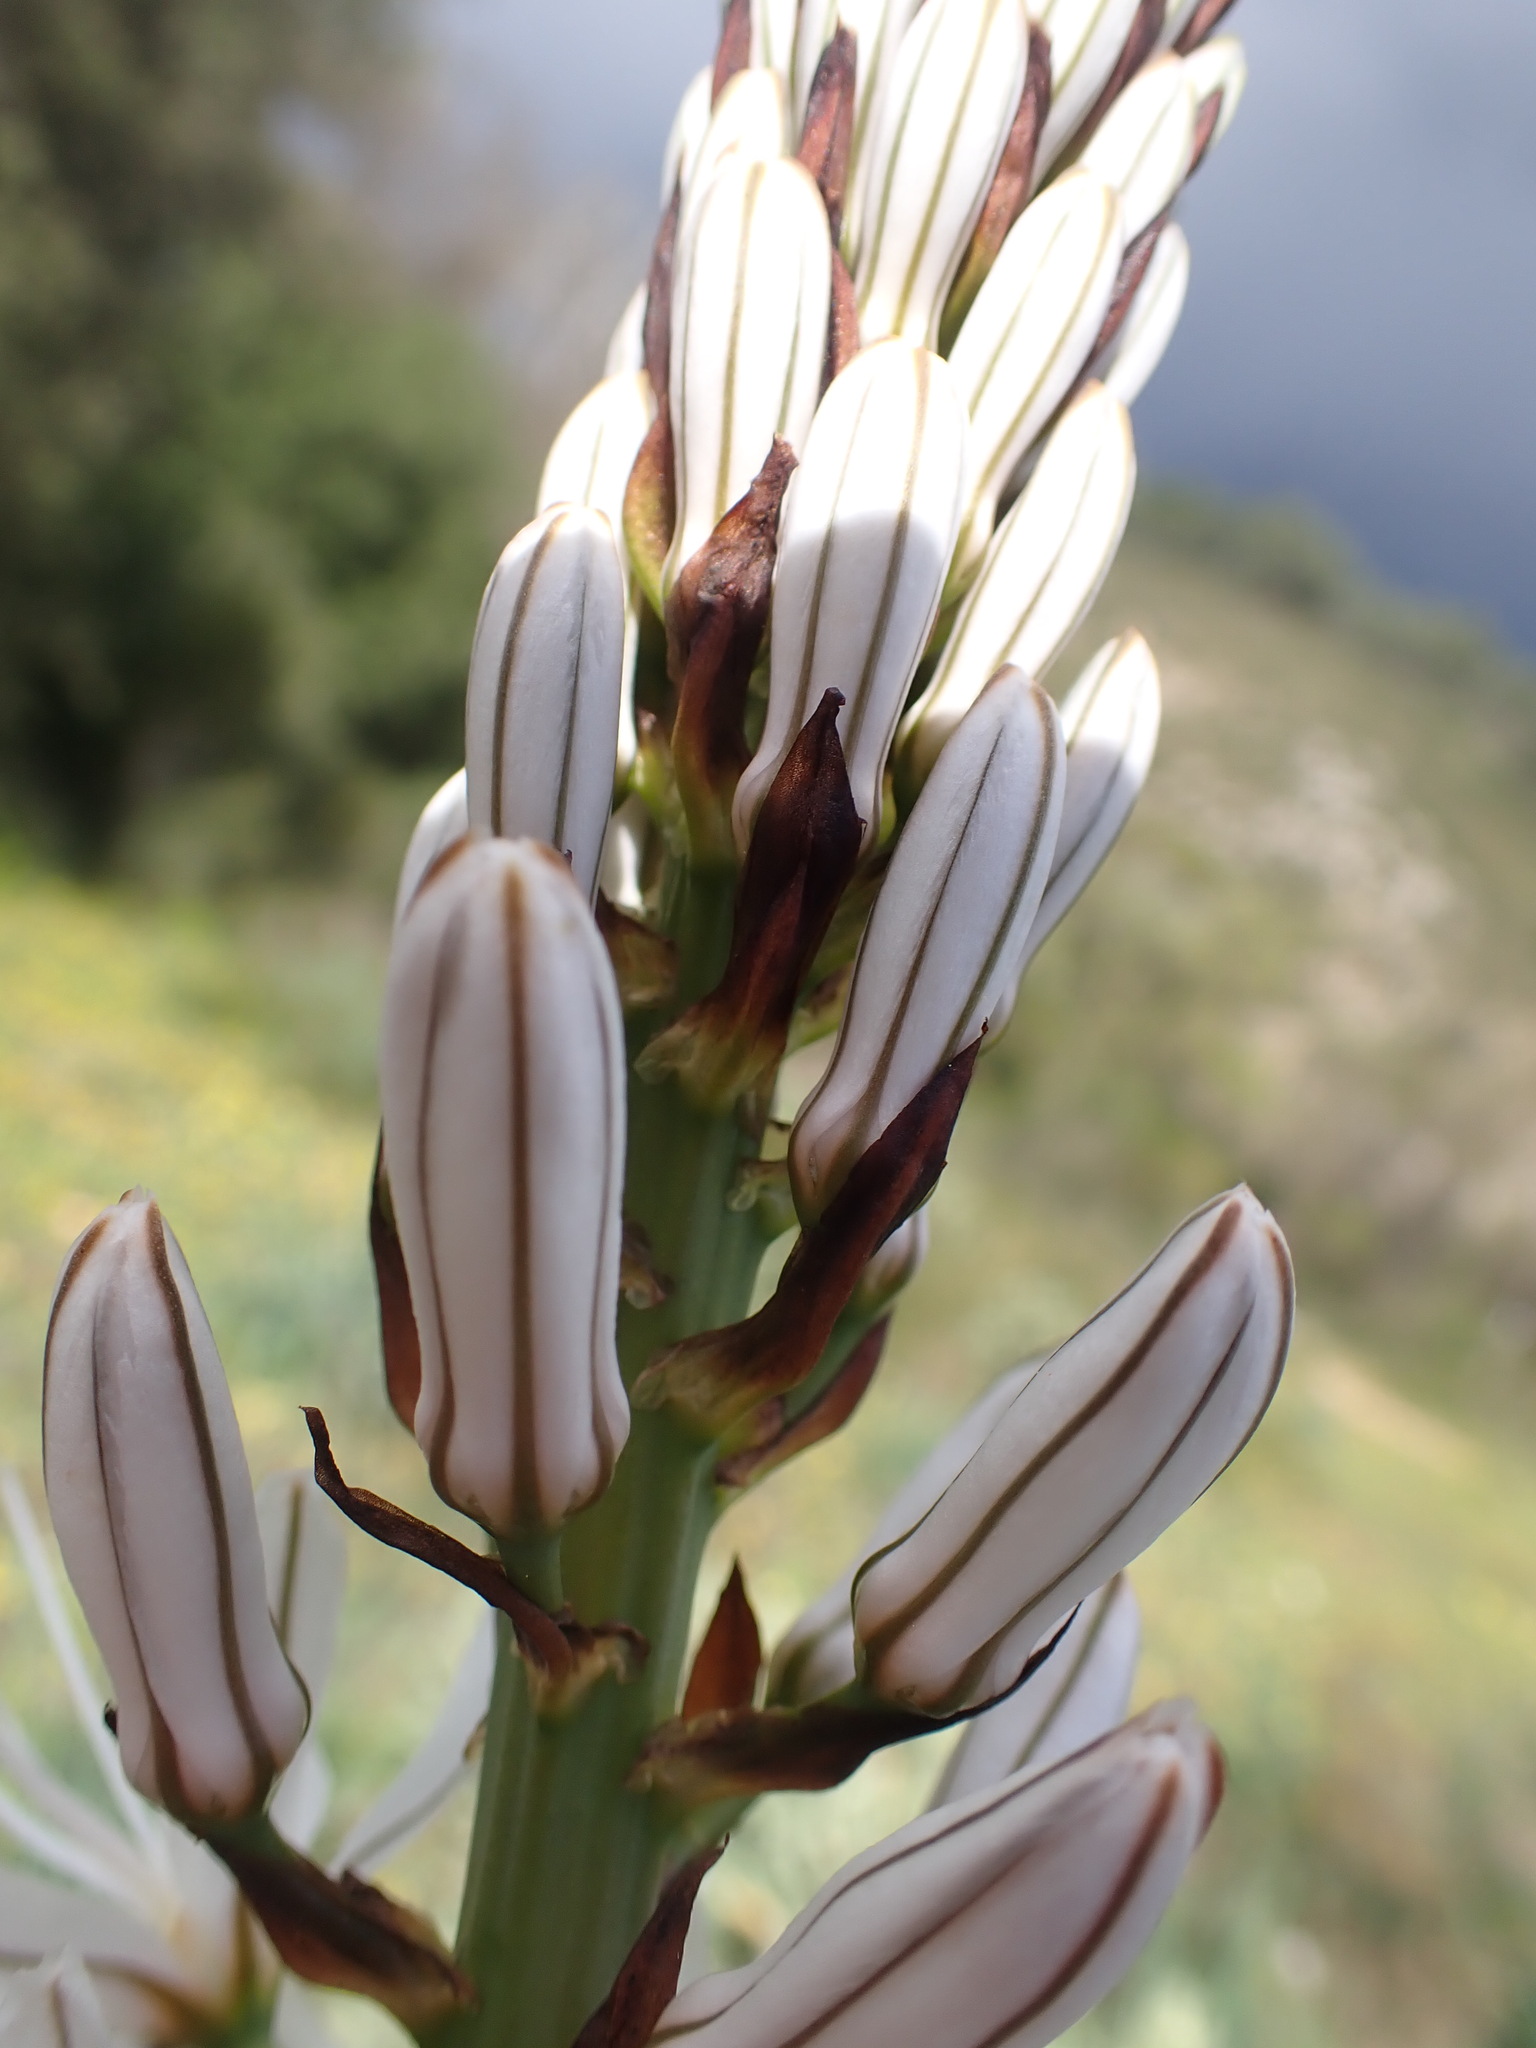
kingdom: Plantae
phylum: Tracheophyta
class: Liliopsida
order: Asparagales
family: Asphodelaceae
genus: Asphodelus
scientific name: Asphodelus cerasifer
